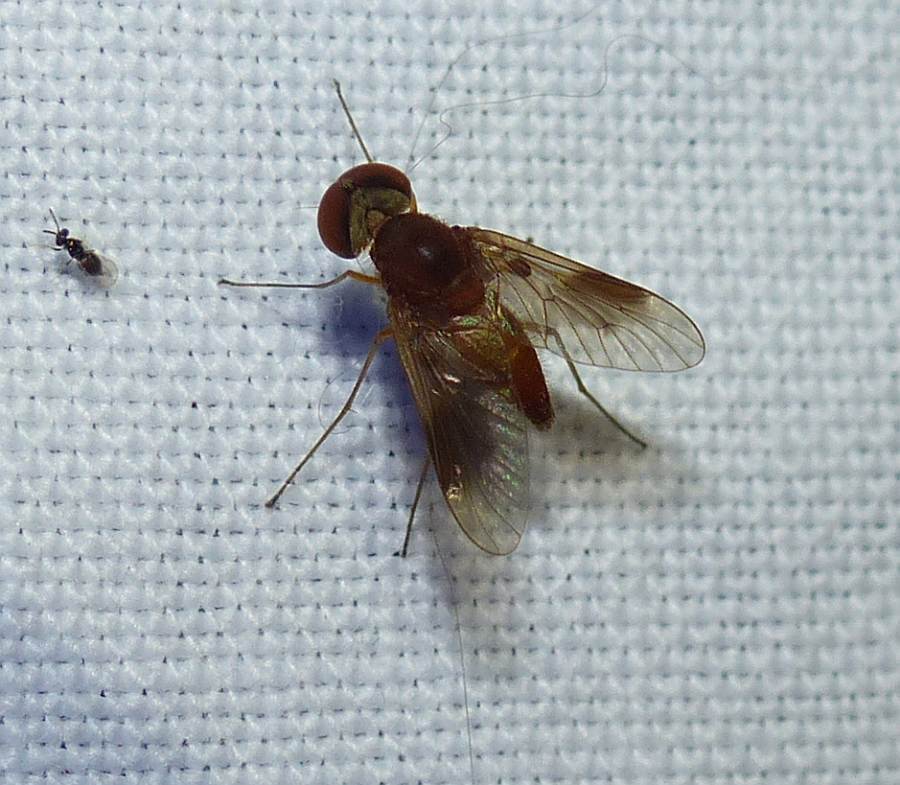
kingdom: Animalia
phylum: Arthropoda
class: Insecta
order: Diptera
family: Rhagionidae
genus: Chrysopilus
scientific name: Chrysopilus quadratus
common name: Quadrate snipe fly
